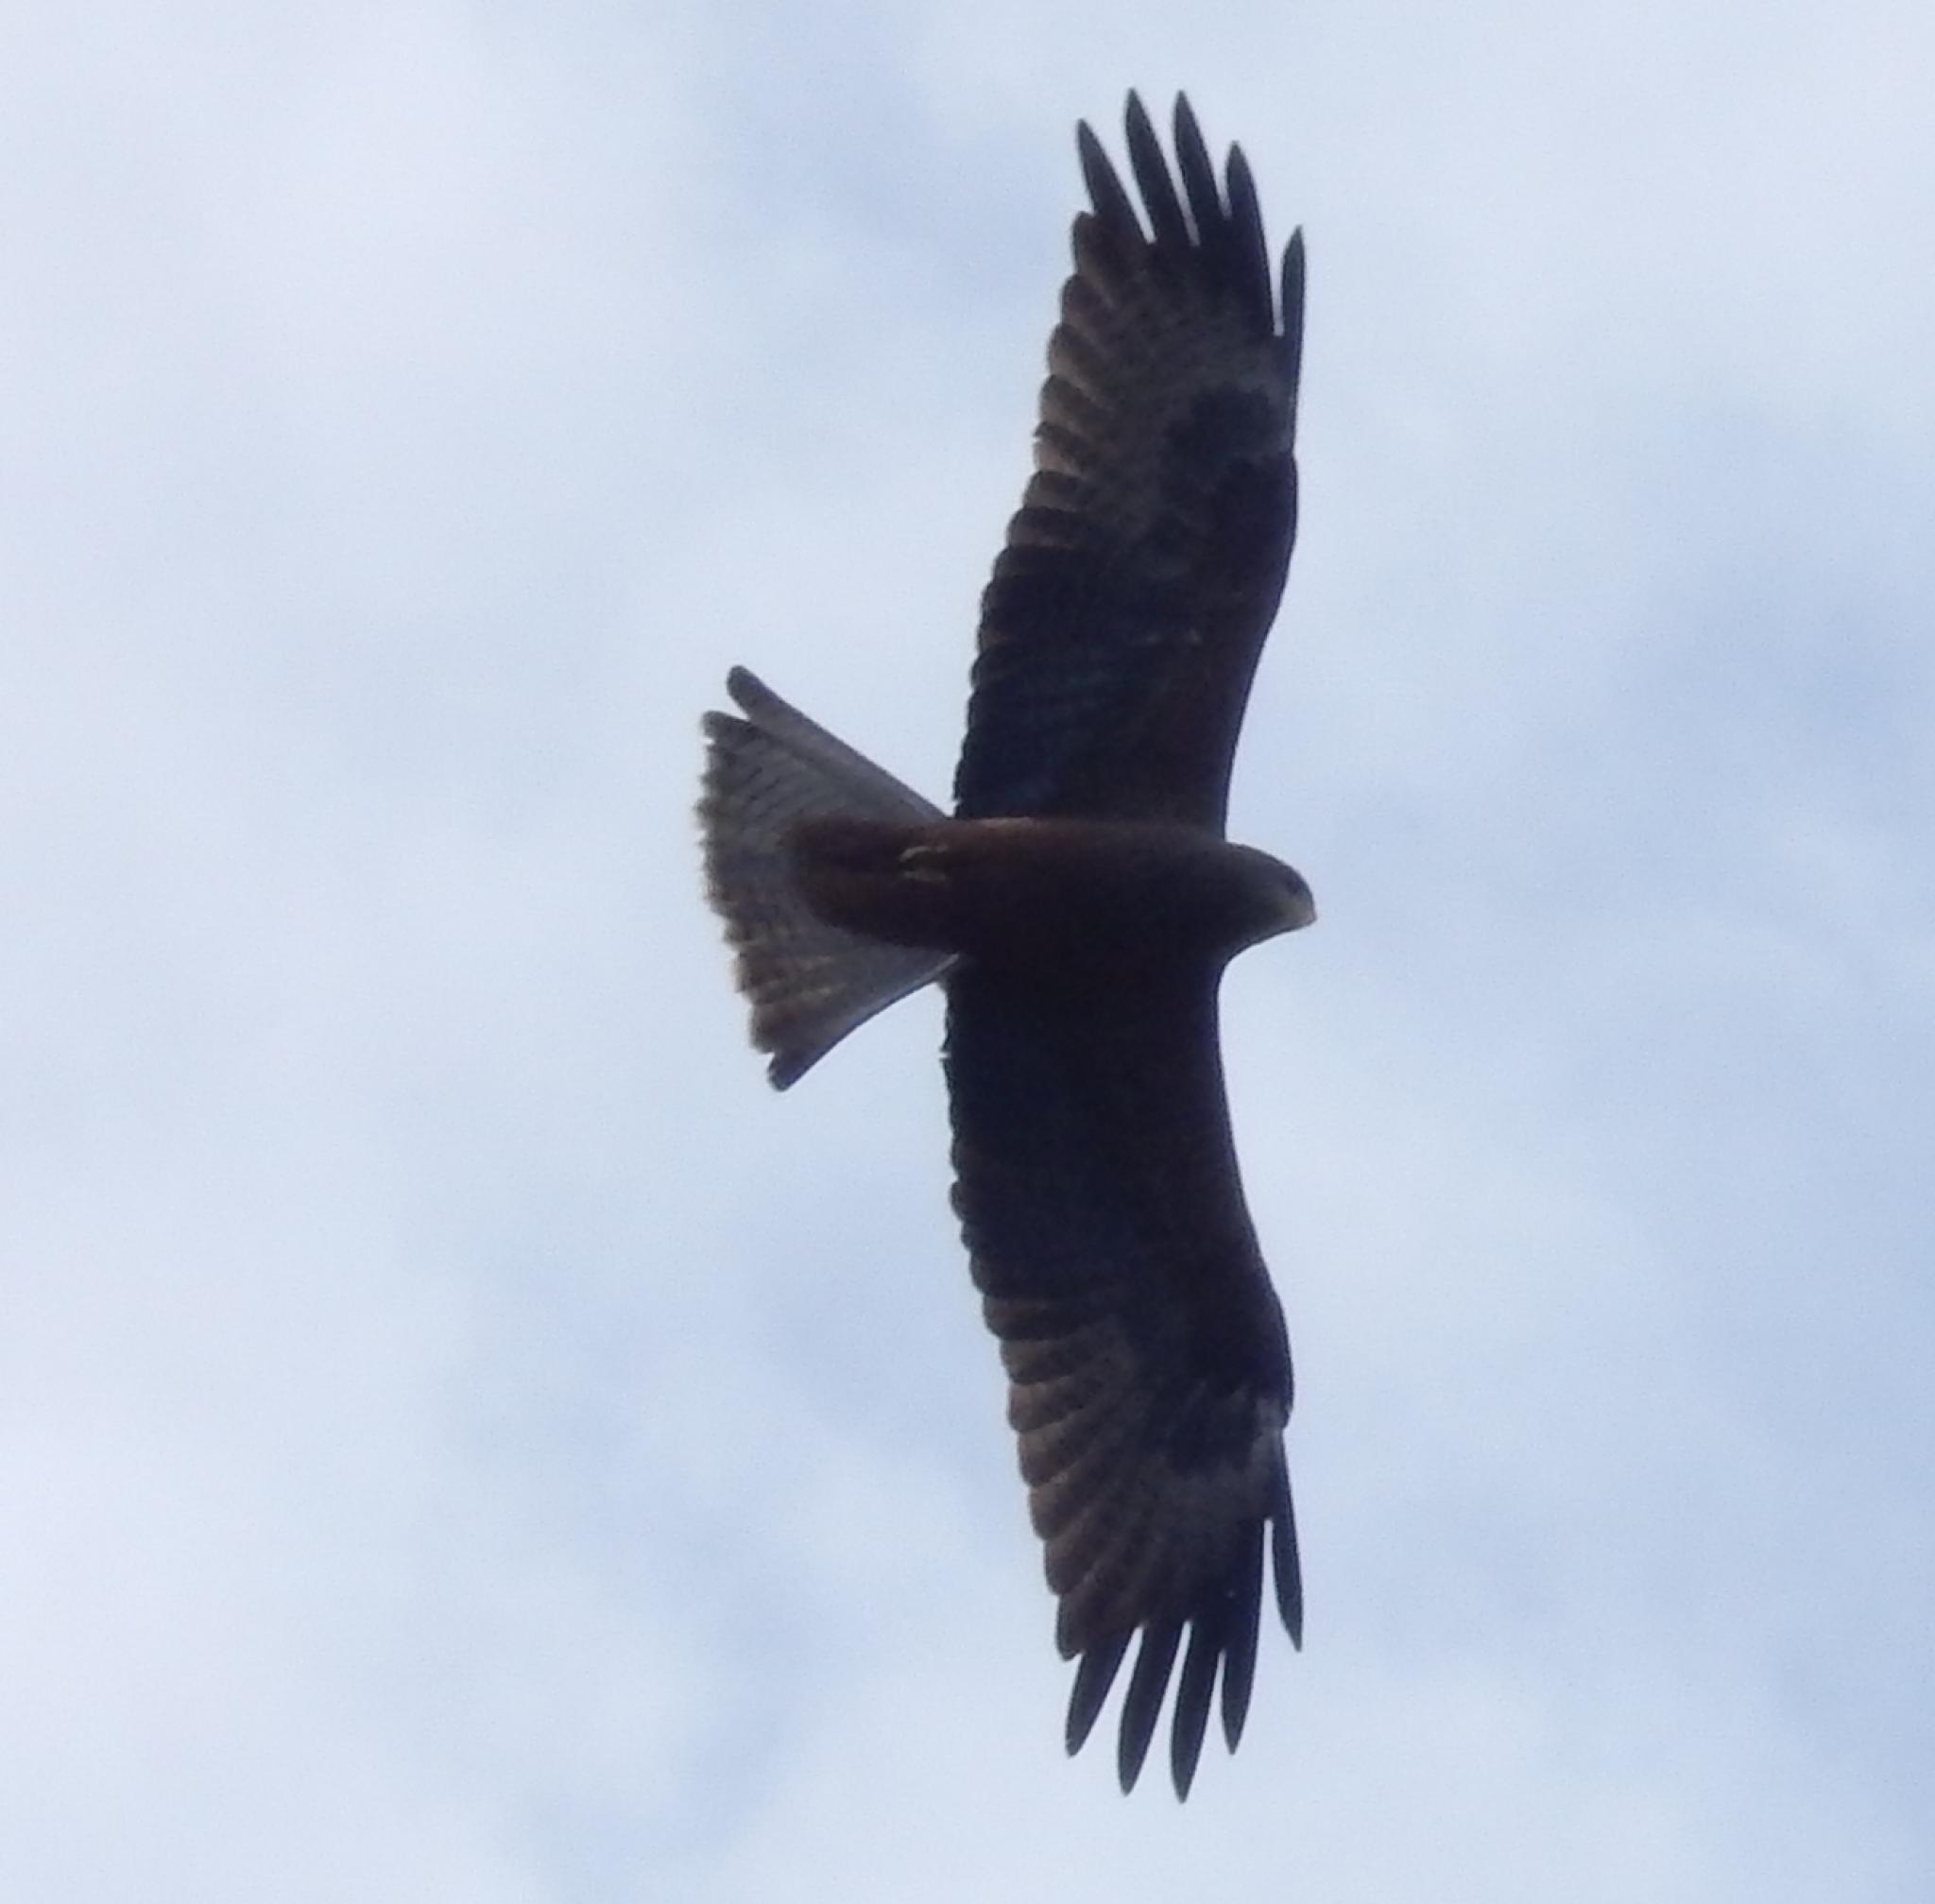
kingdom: Animalia
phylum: Chordata
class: Aves
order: Accipitriformes
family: Accipitridae
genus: Milvus
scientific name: Milvus migrans
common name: Black kite
